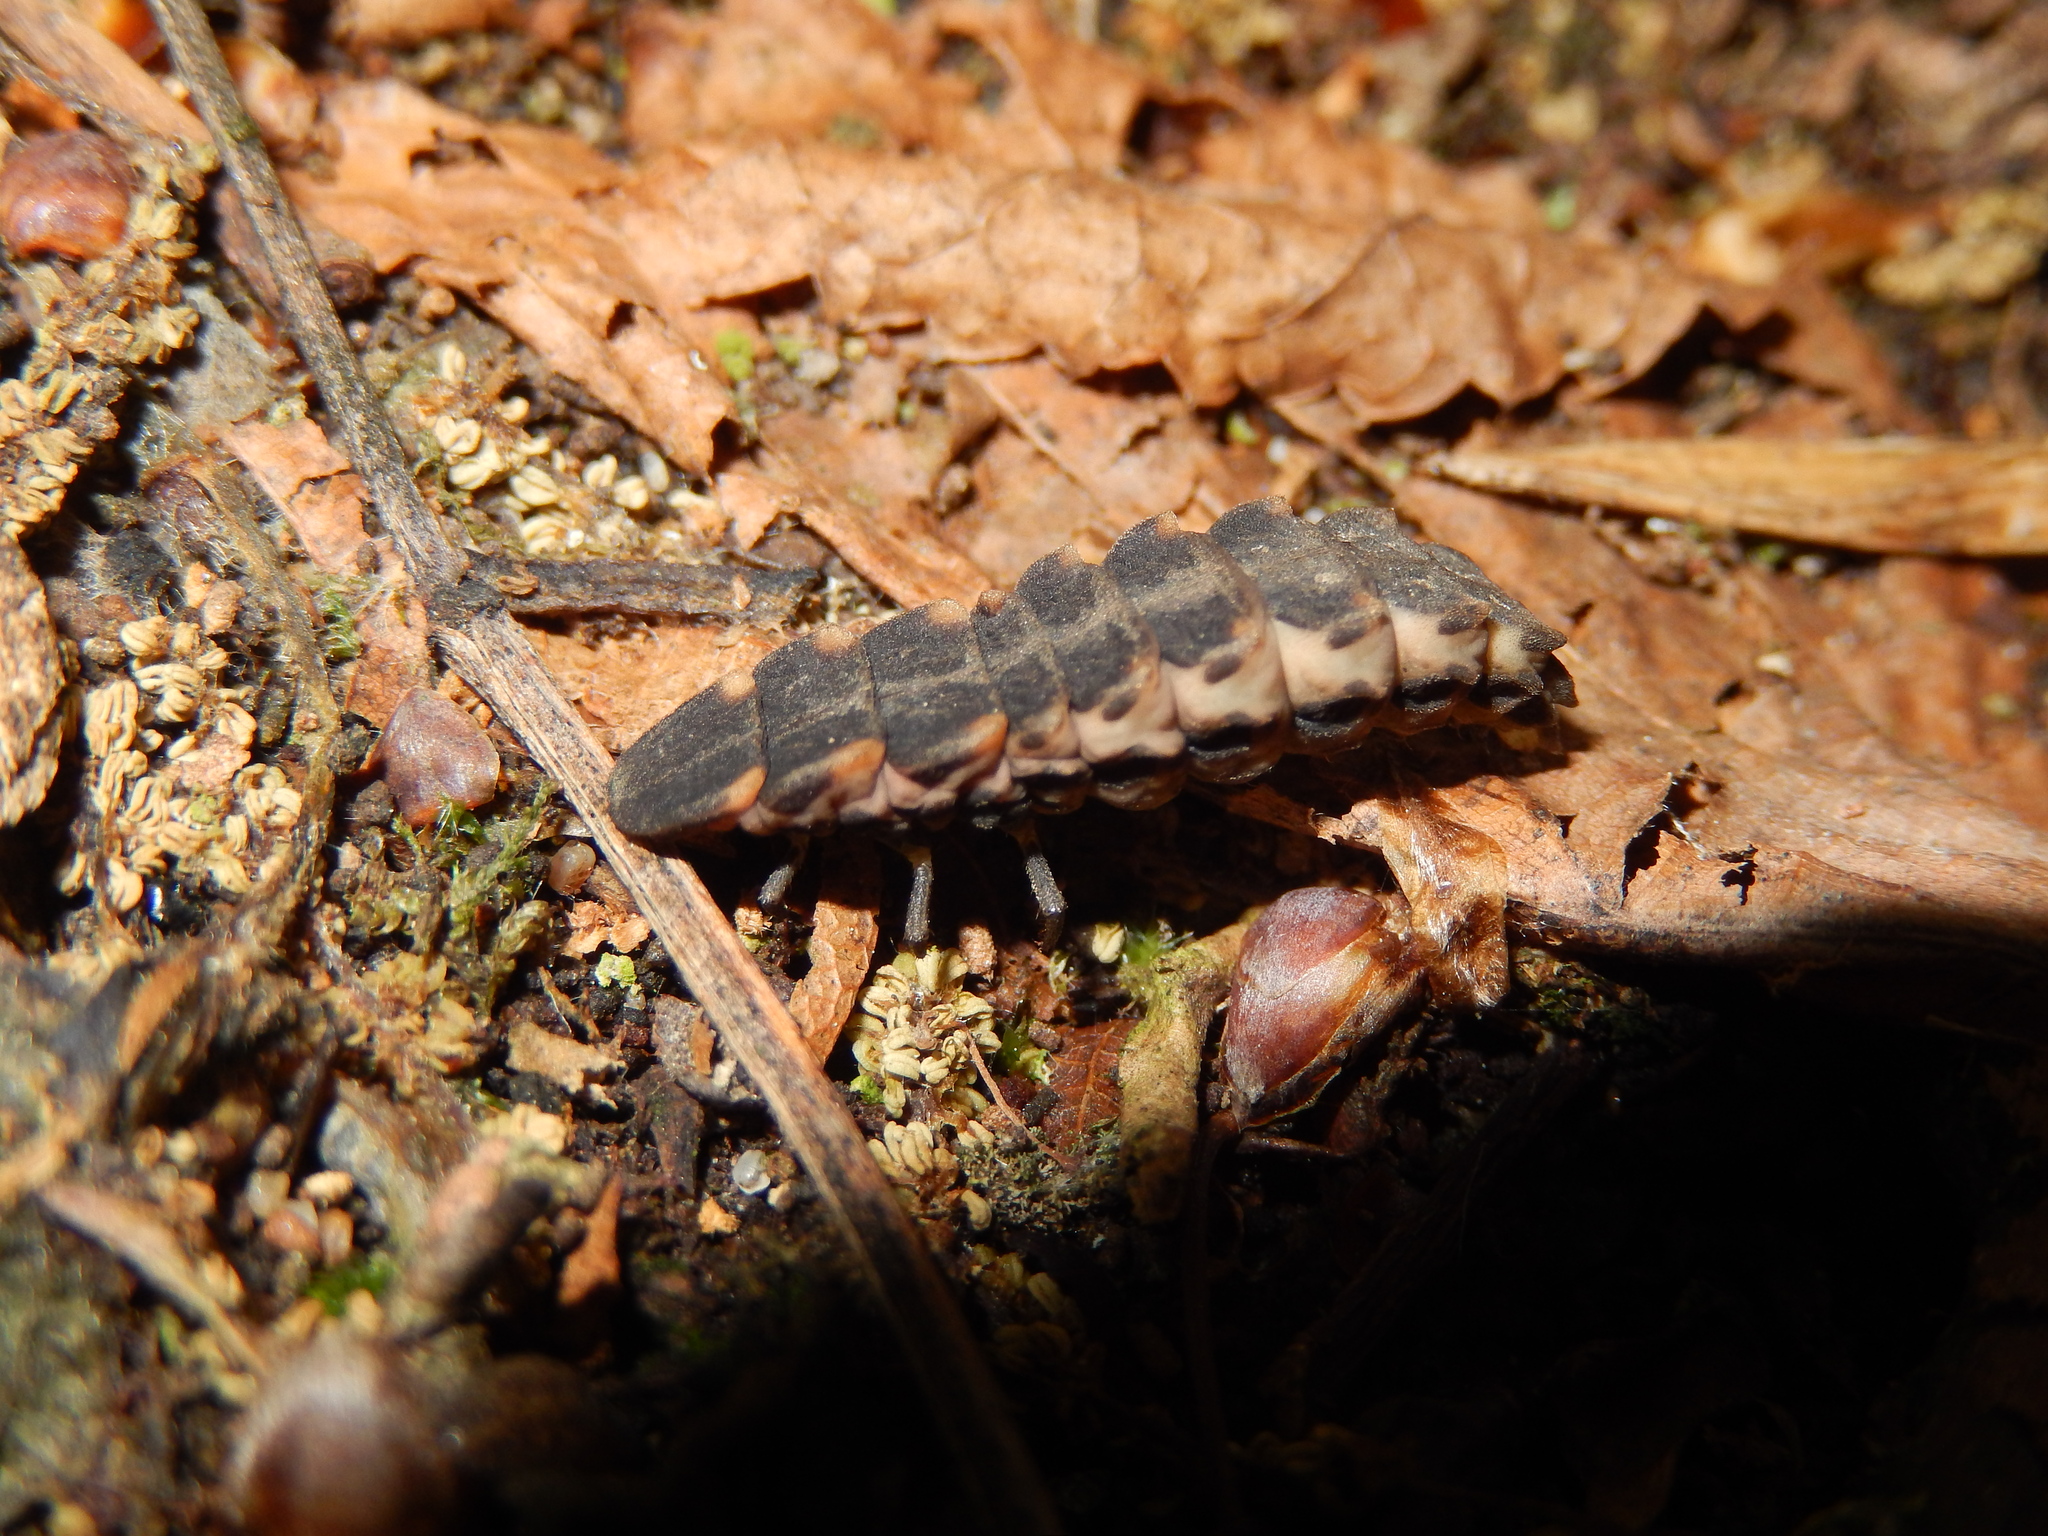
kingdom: Animalia
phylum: Arthropoda
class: Insecta
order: Coleoptera
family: Lampyridae
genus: Lampyris
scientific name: Lampyris noctiluca
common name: Glow-worm
